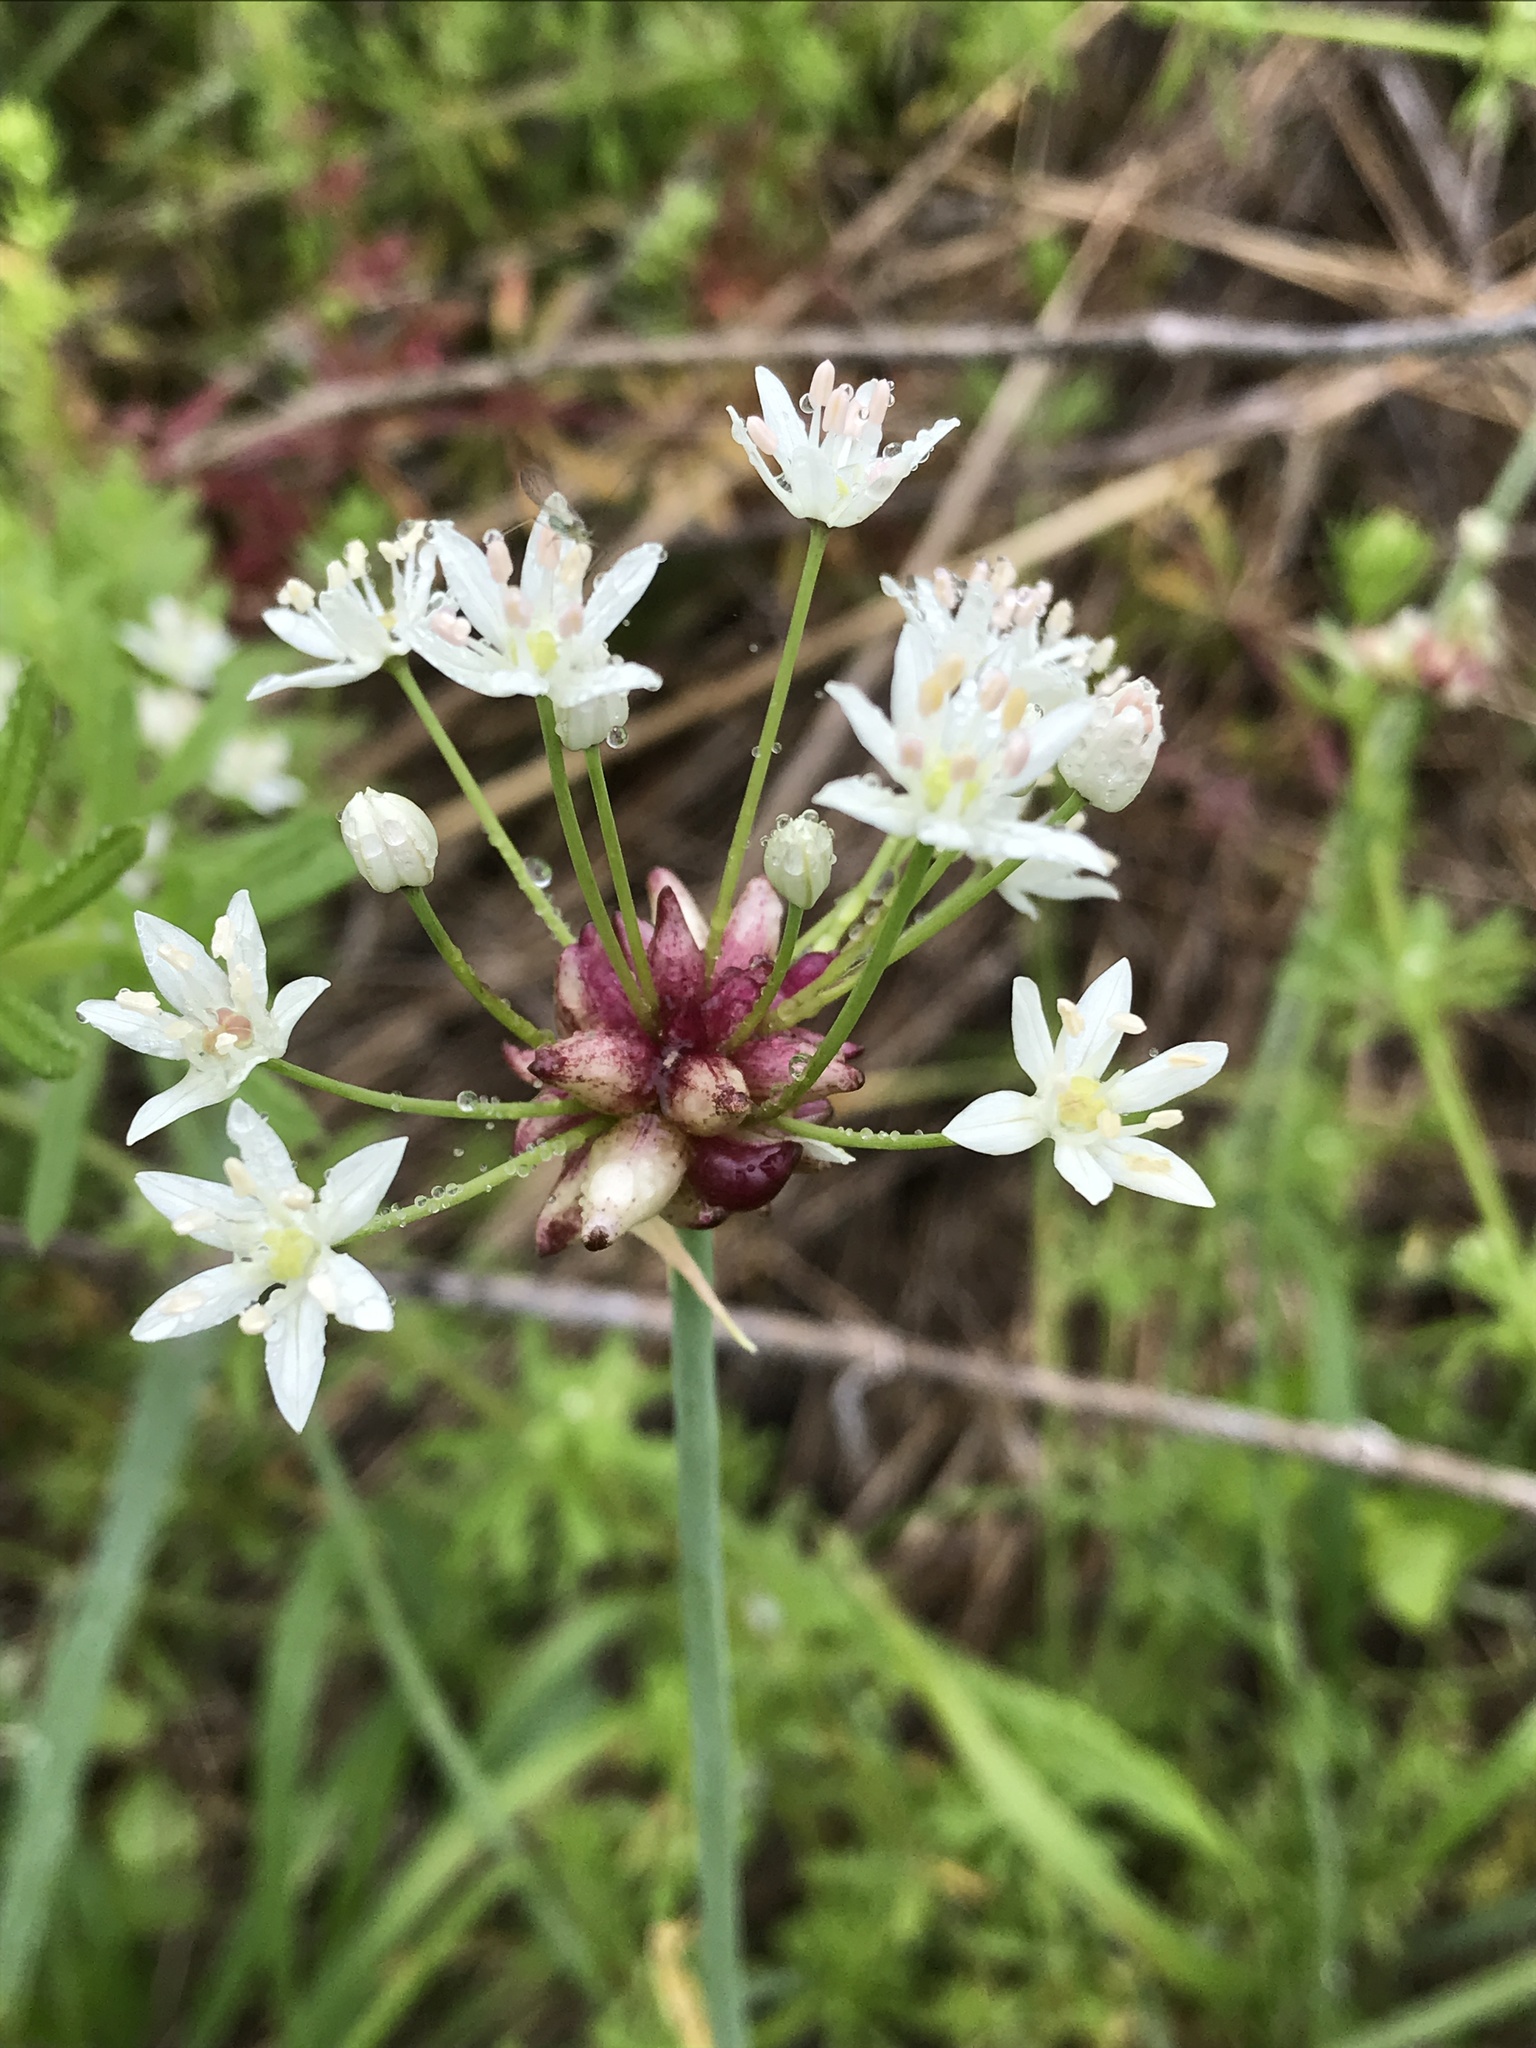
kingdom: Plantae
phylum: Tracheophyta
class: Liliopsida
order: Asparagales
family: Amaryllidaceae
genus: Allium
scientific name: Allium canadense
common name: Meadow garlic
